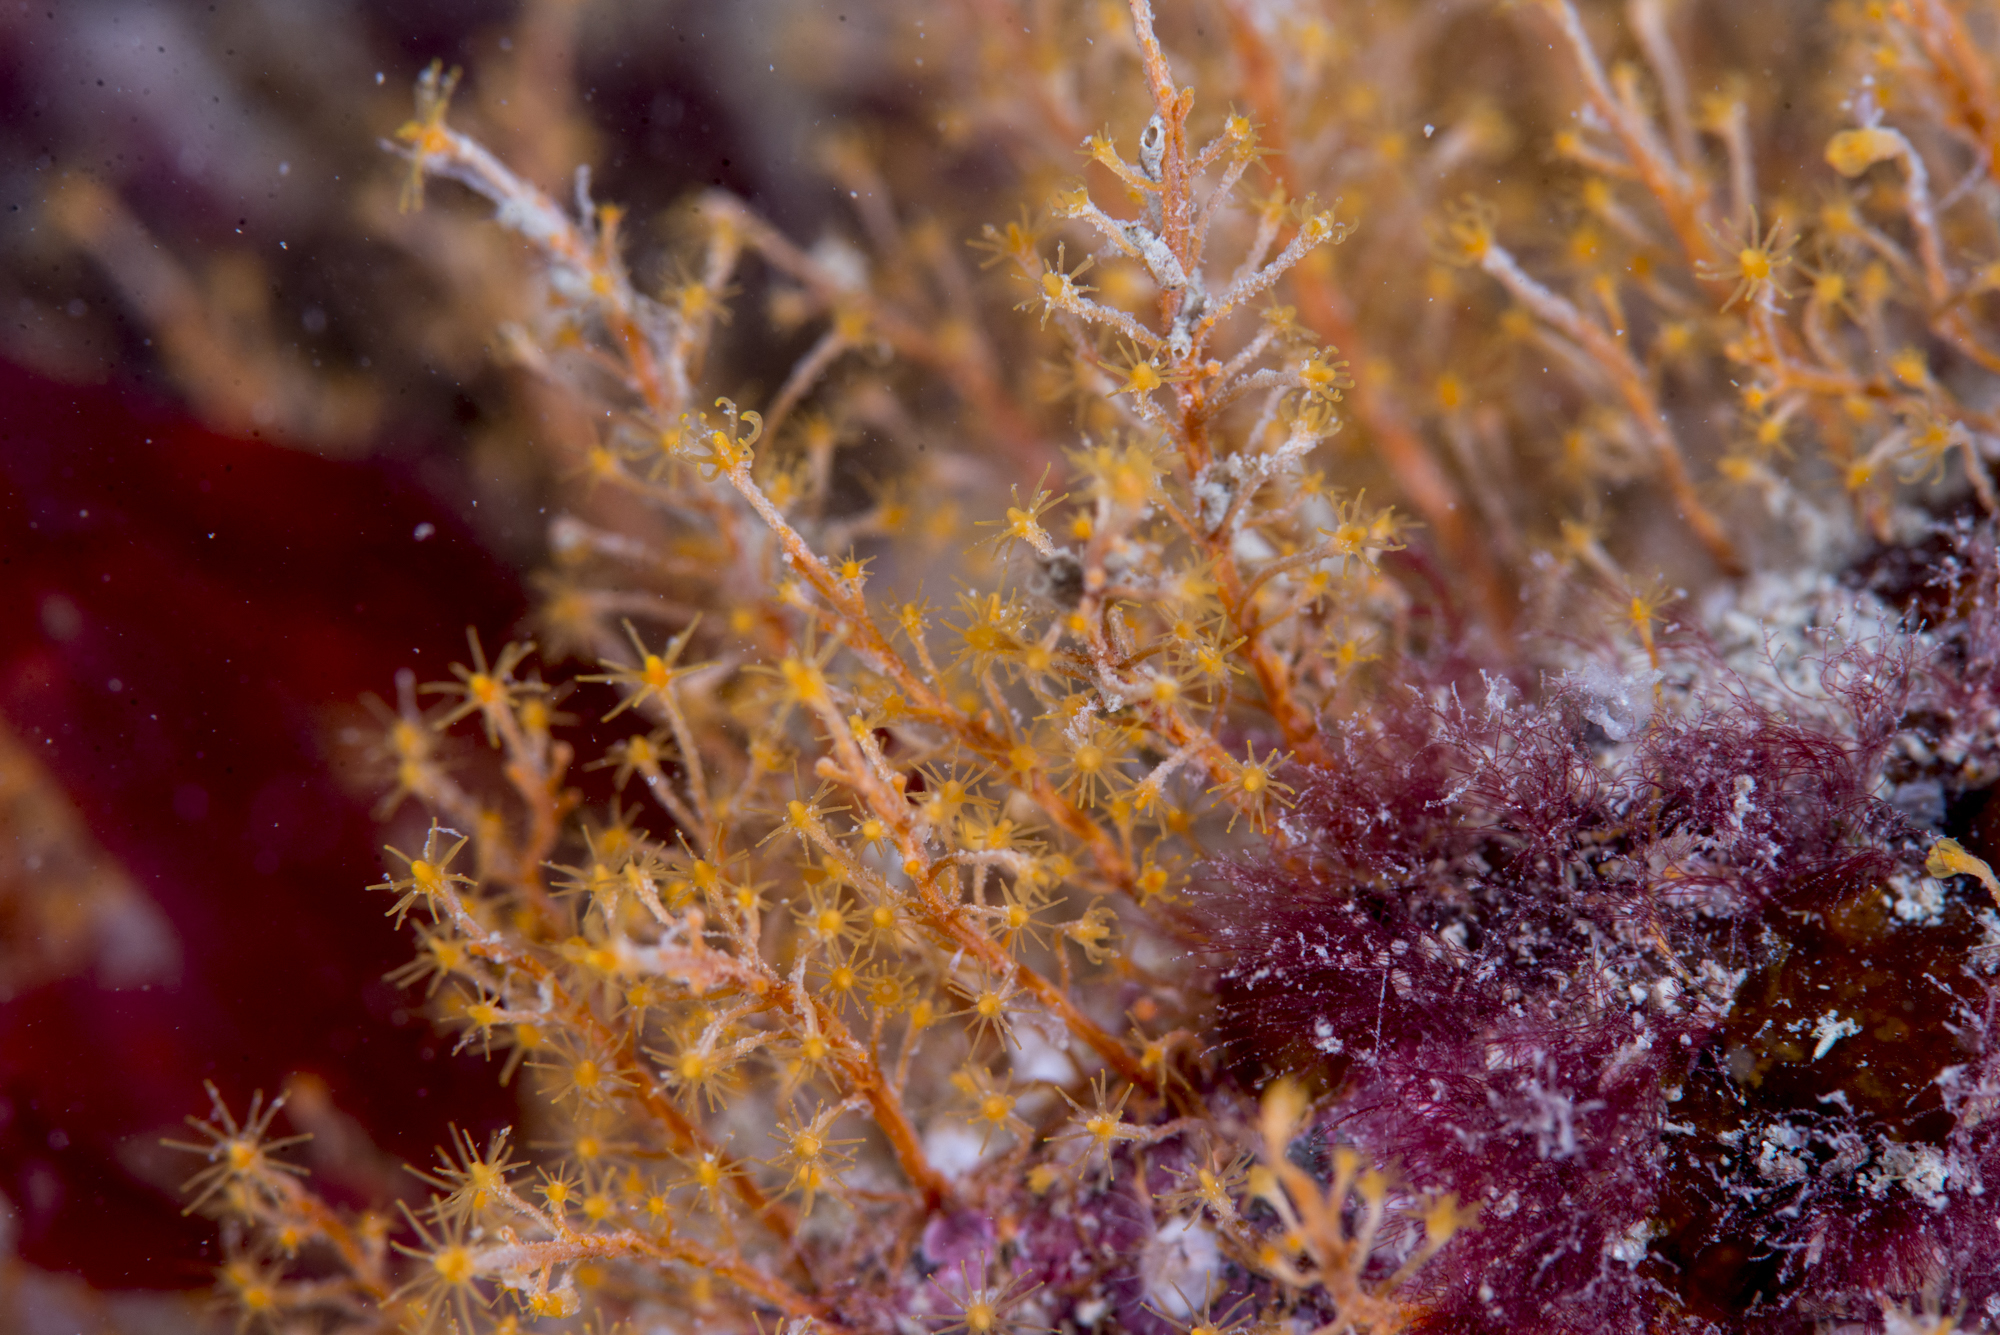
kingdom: Animalia
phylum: Cnidaria
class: Hydrozoa
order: Anthoathecata
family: Bougainvilliidae
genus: Garveia
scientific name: Garveia nutans
